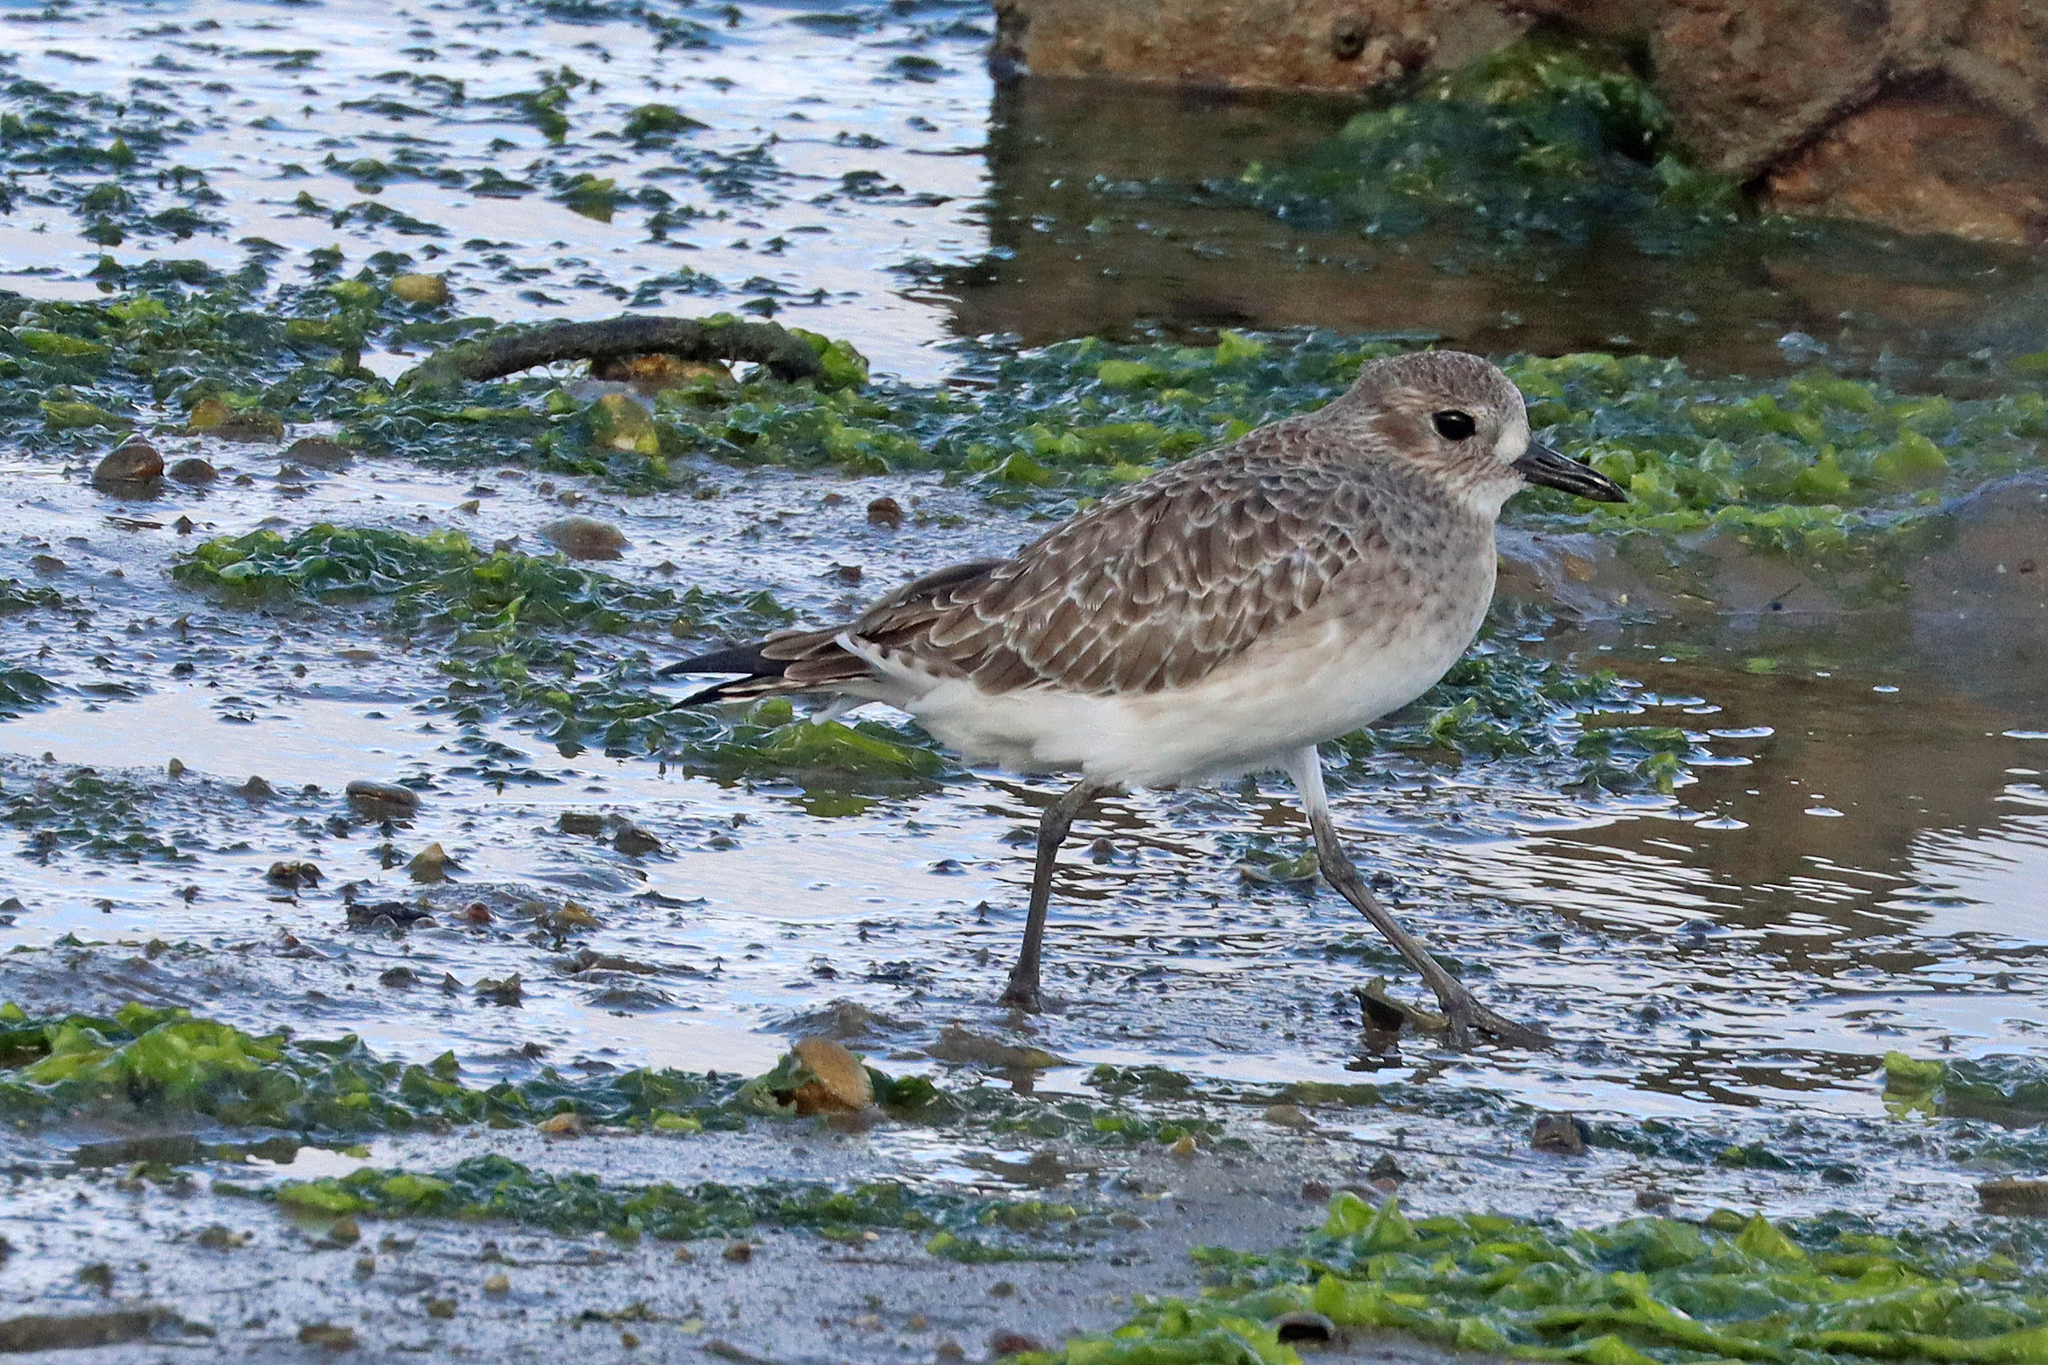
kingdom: Animalia
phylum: Chordata
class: Aves
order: Charadriiformes
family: Charadriidae
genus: Pluvialis
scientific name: Pluvialis squatarola
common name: Grey plover
